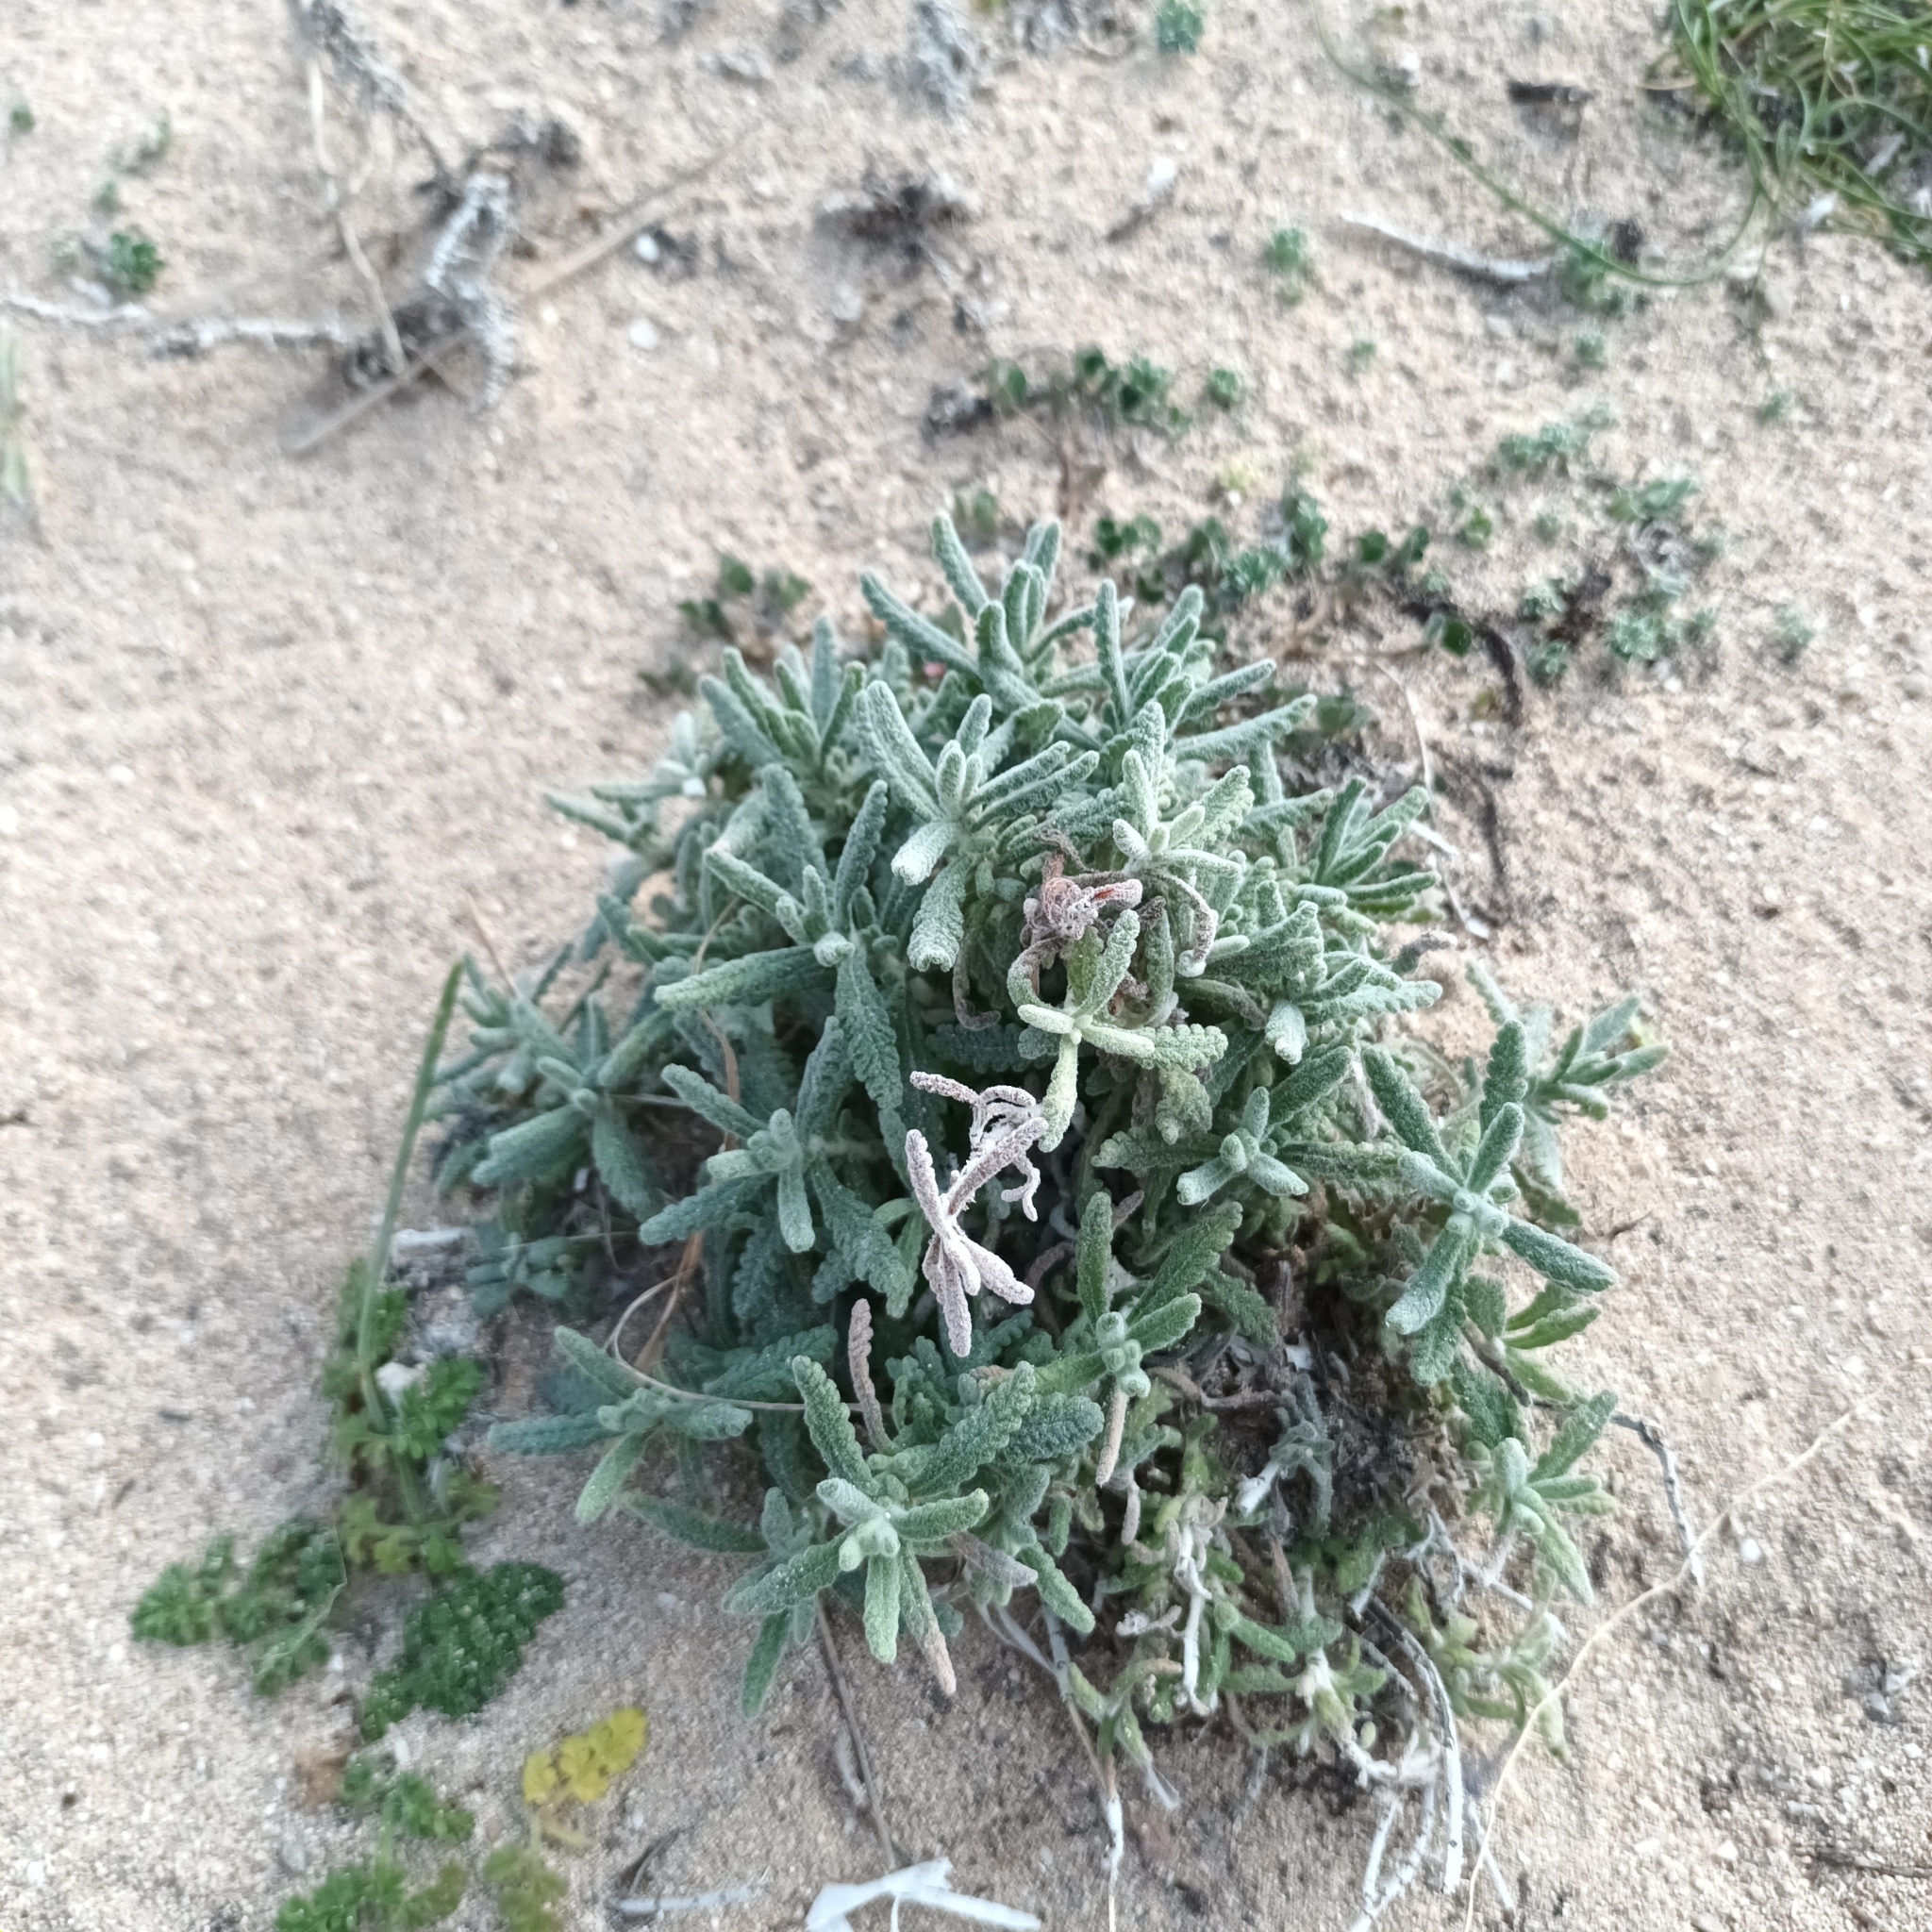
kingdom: Plantae
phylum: Tracheophyta
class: Magnoliopsida
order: Lamiales
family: Lamiaceae
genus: Teucrium
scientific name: Teucrium dunense
